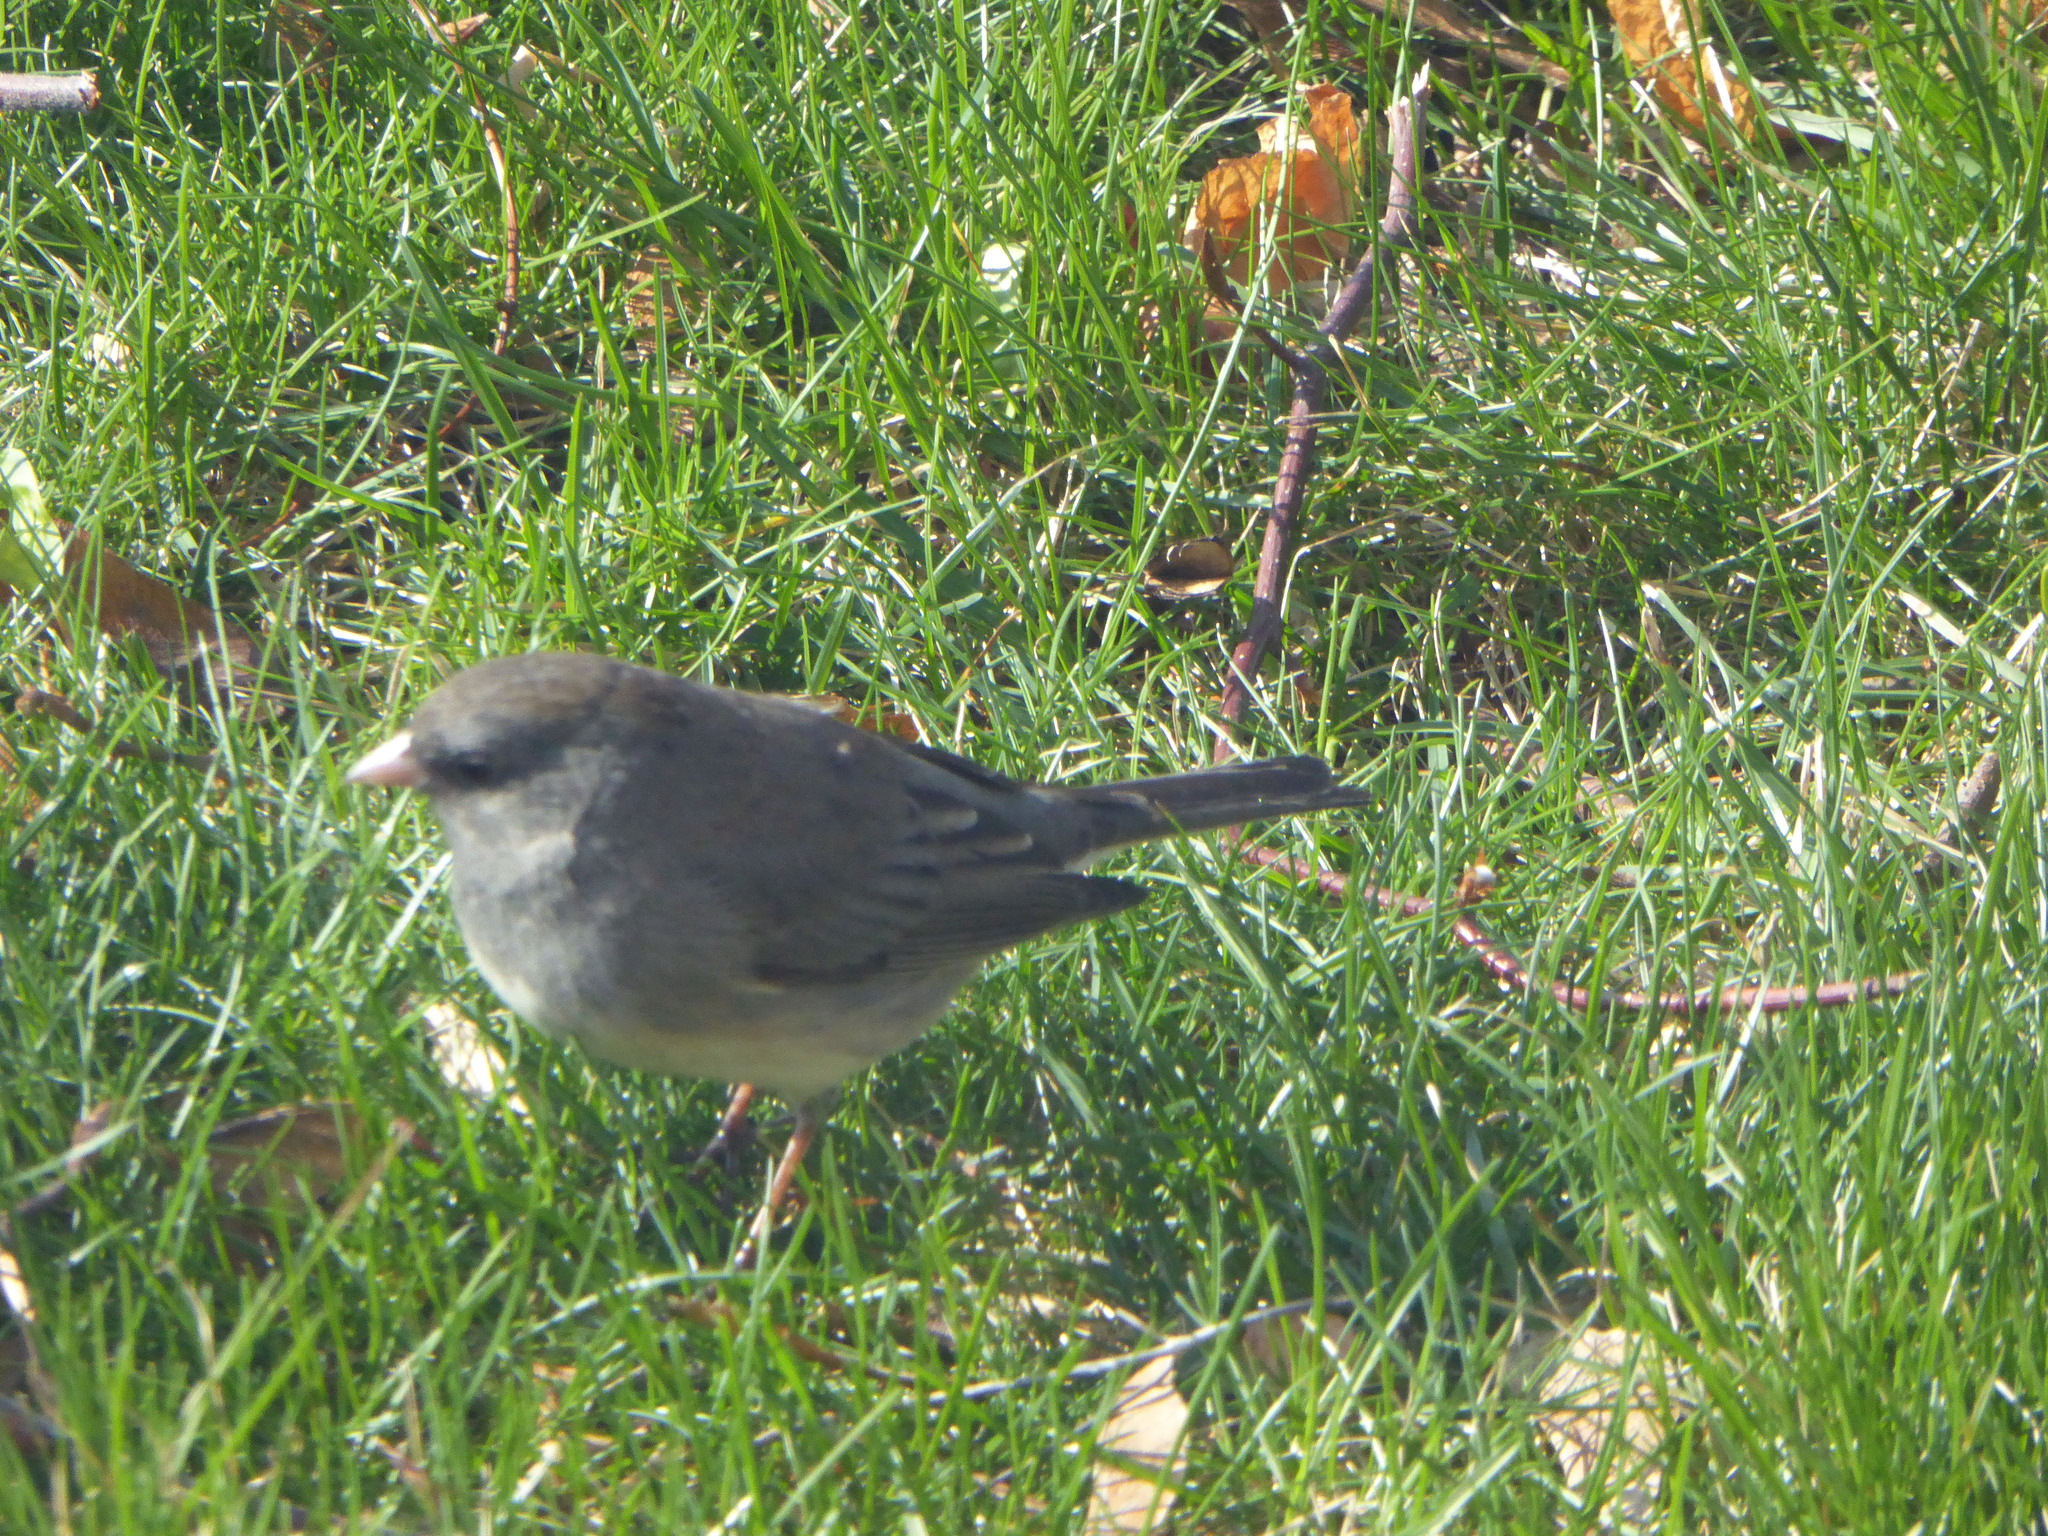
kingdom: Animalia
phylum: Chordata
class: Aves
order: Passeriformes
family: Passerellidae
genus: Junco
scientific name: Junco hyemalis
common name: Dark-eyed junco
